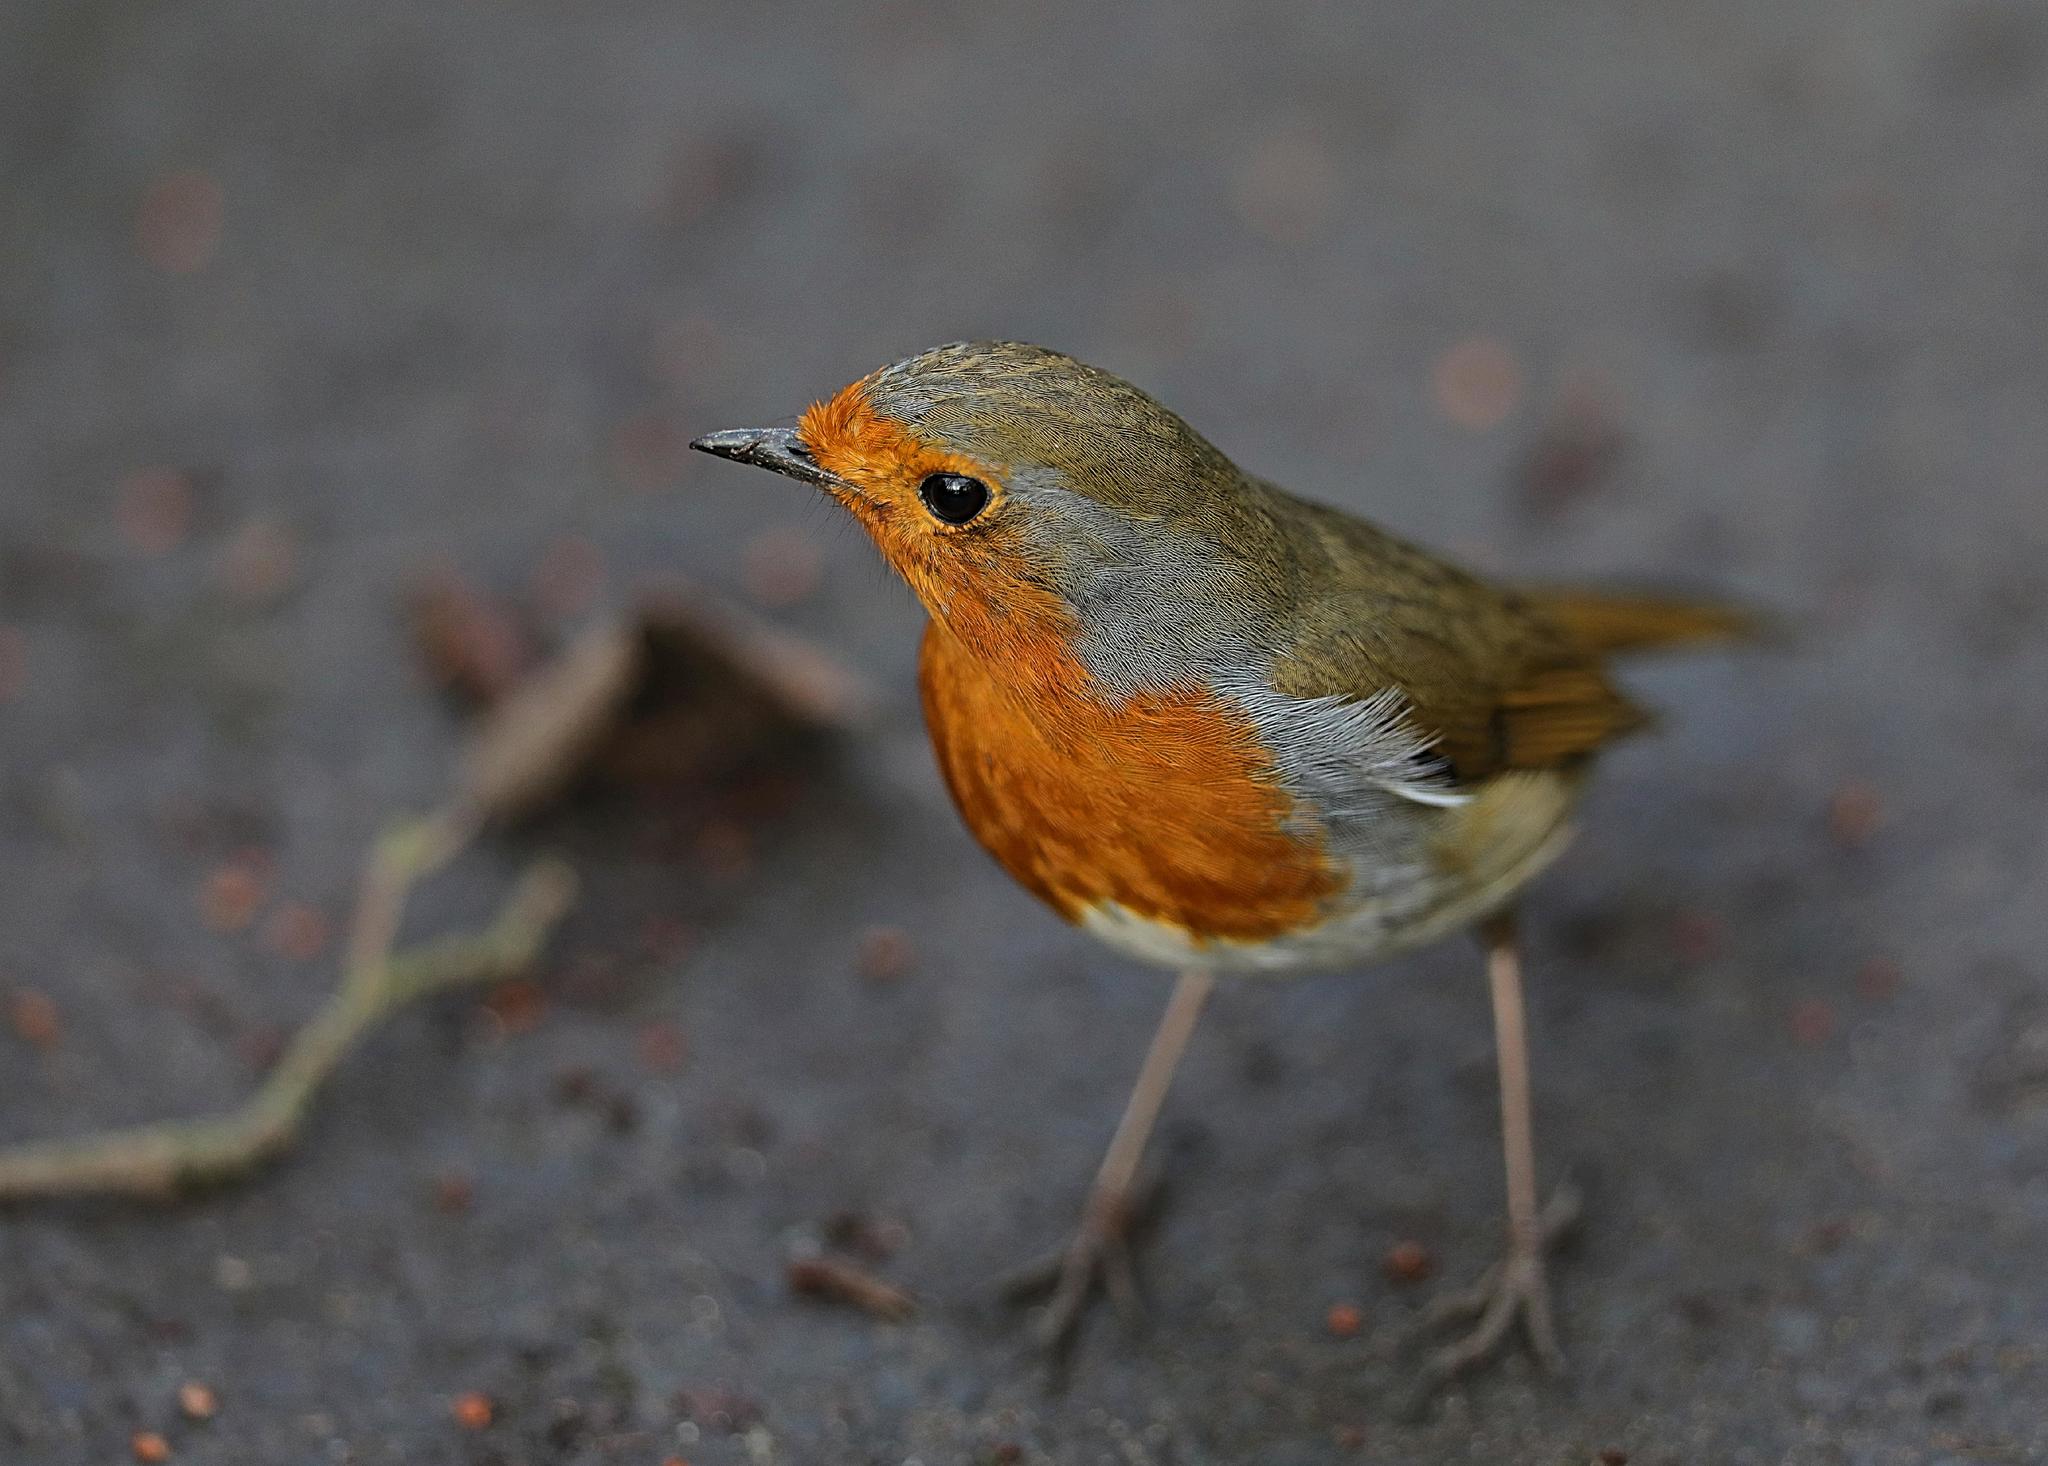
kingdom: Animalia
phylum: Chordata
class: Aves
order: Passeriformes
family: Muscicapidae
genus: Erithacus
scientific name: Erithacus rubecula
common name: European robin
